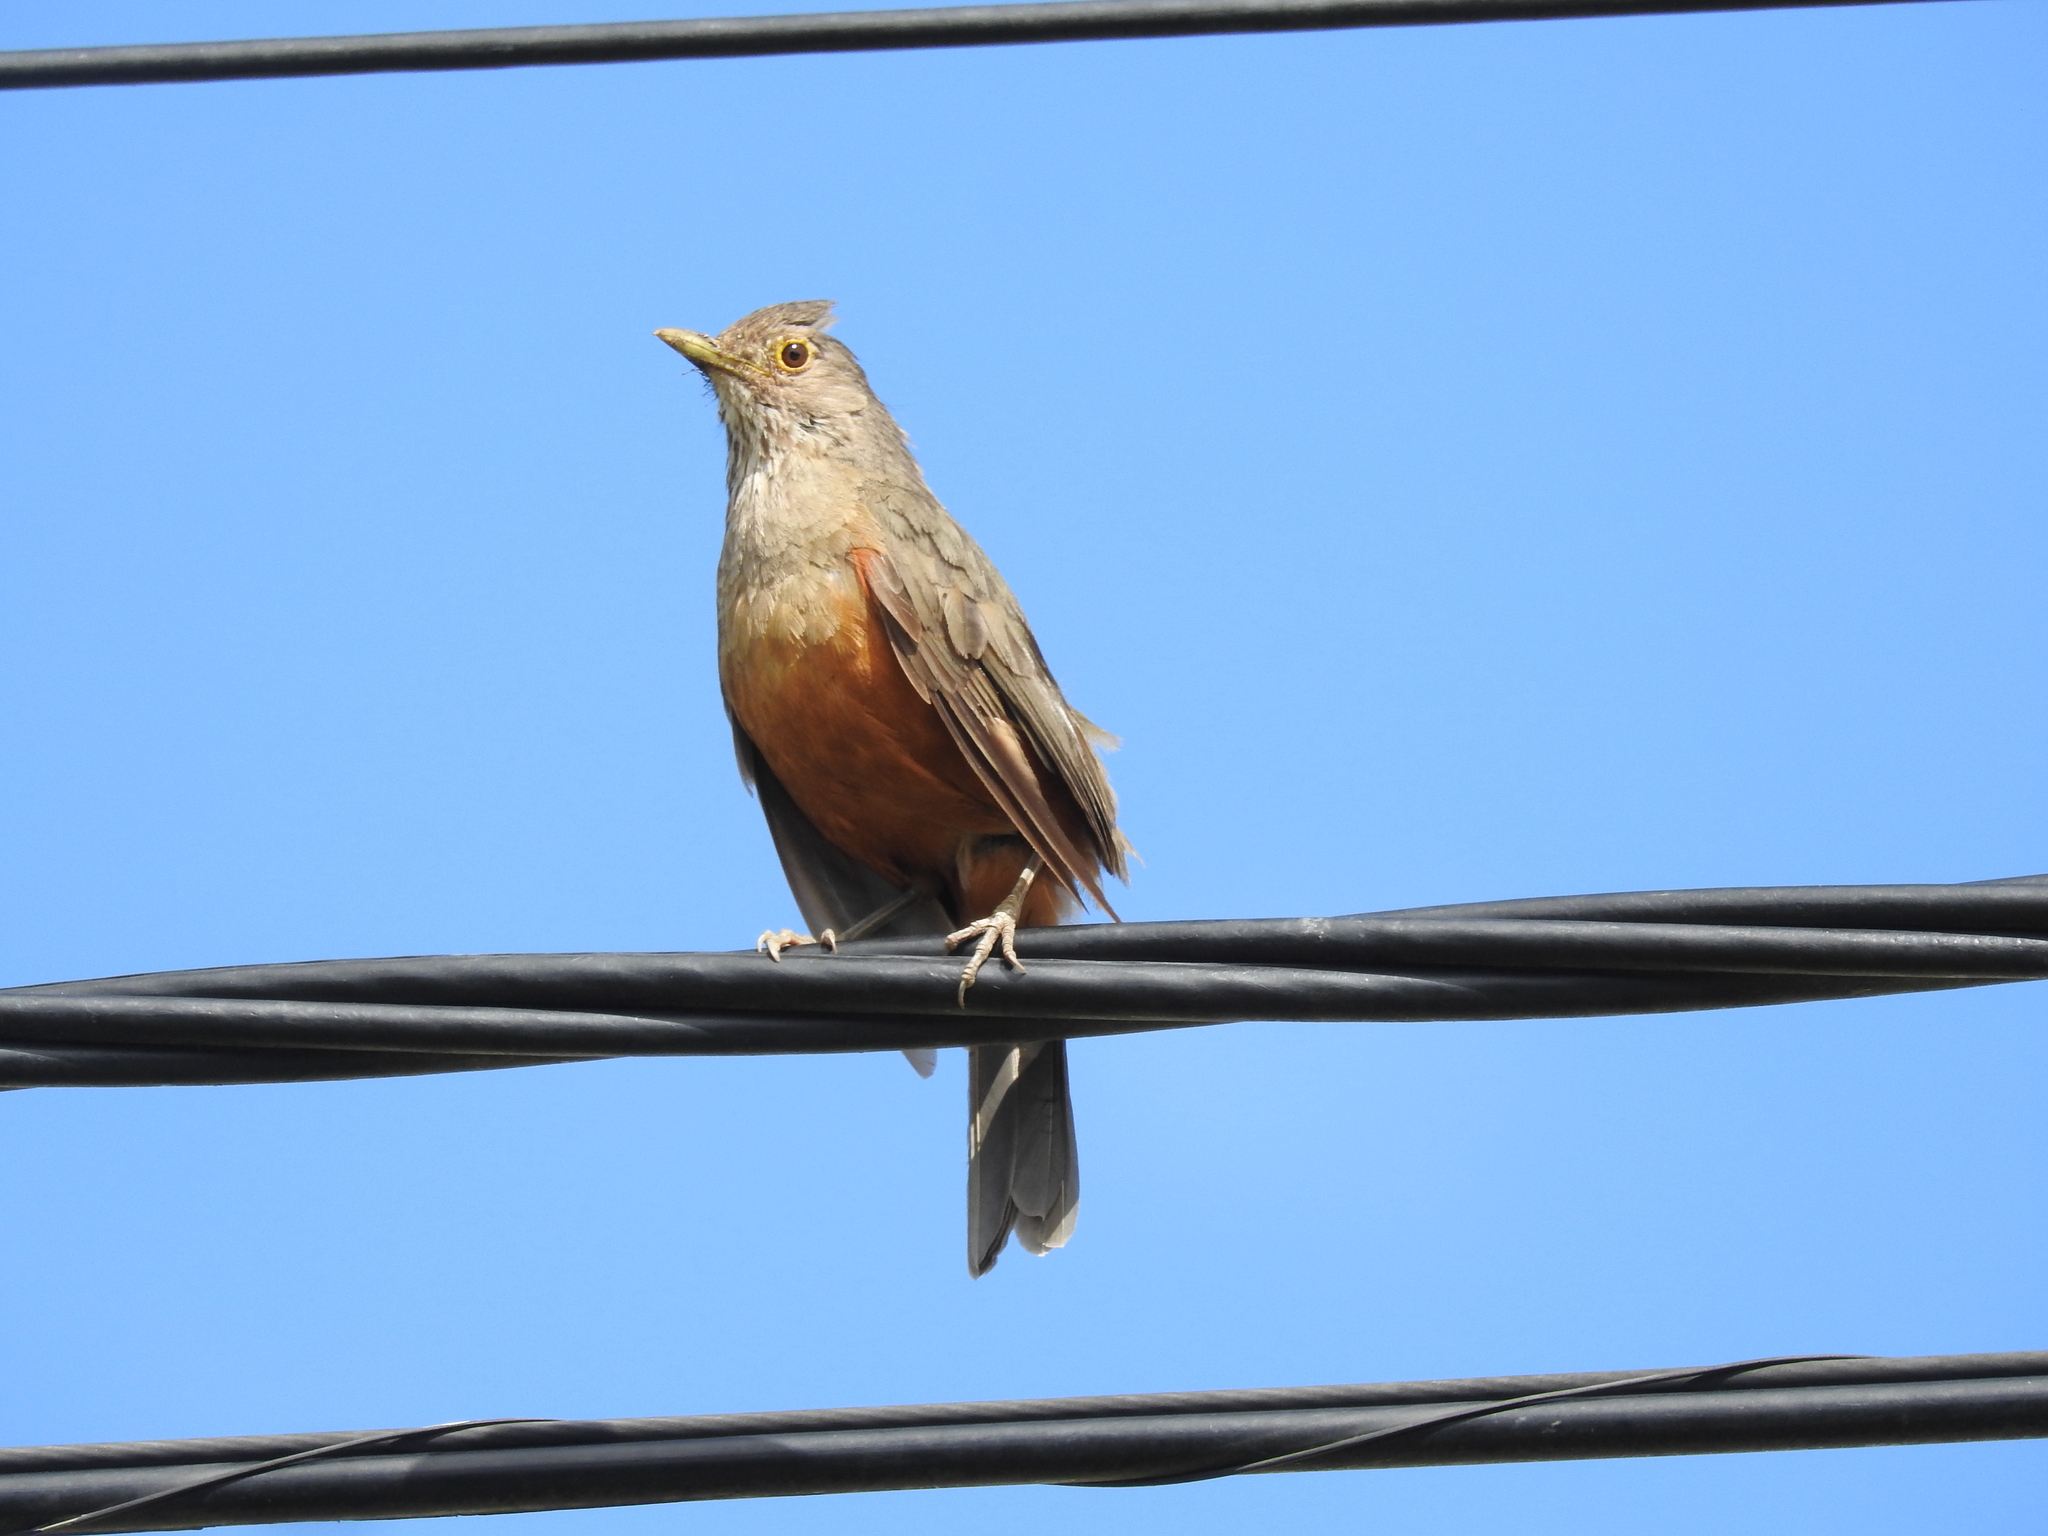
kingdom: Animalia
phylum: Chordata
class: Aves
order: Passeriformes
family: Turdidae
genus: Turdus
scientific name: Turdus rufiventris
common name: Rufous-bellied thrush
